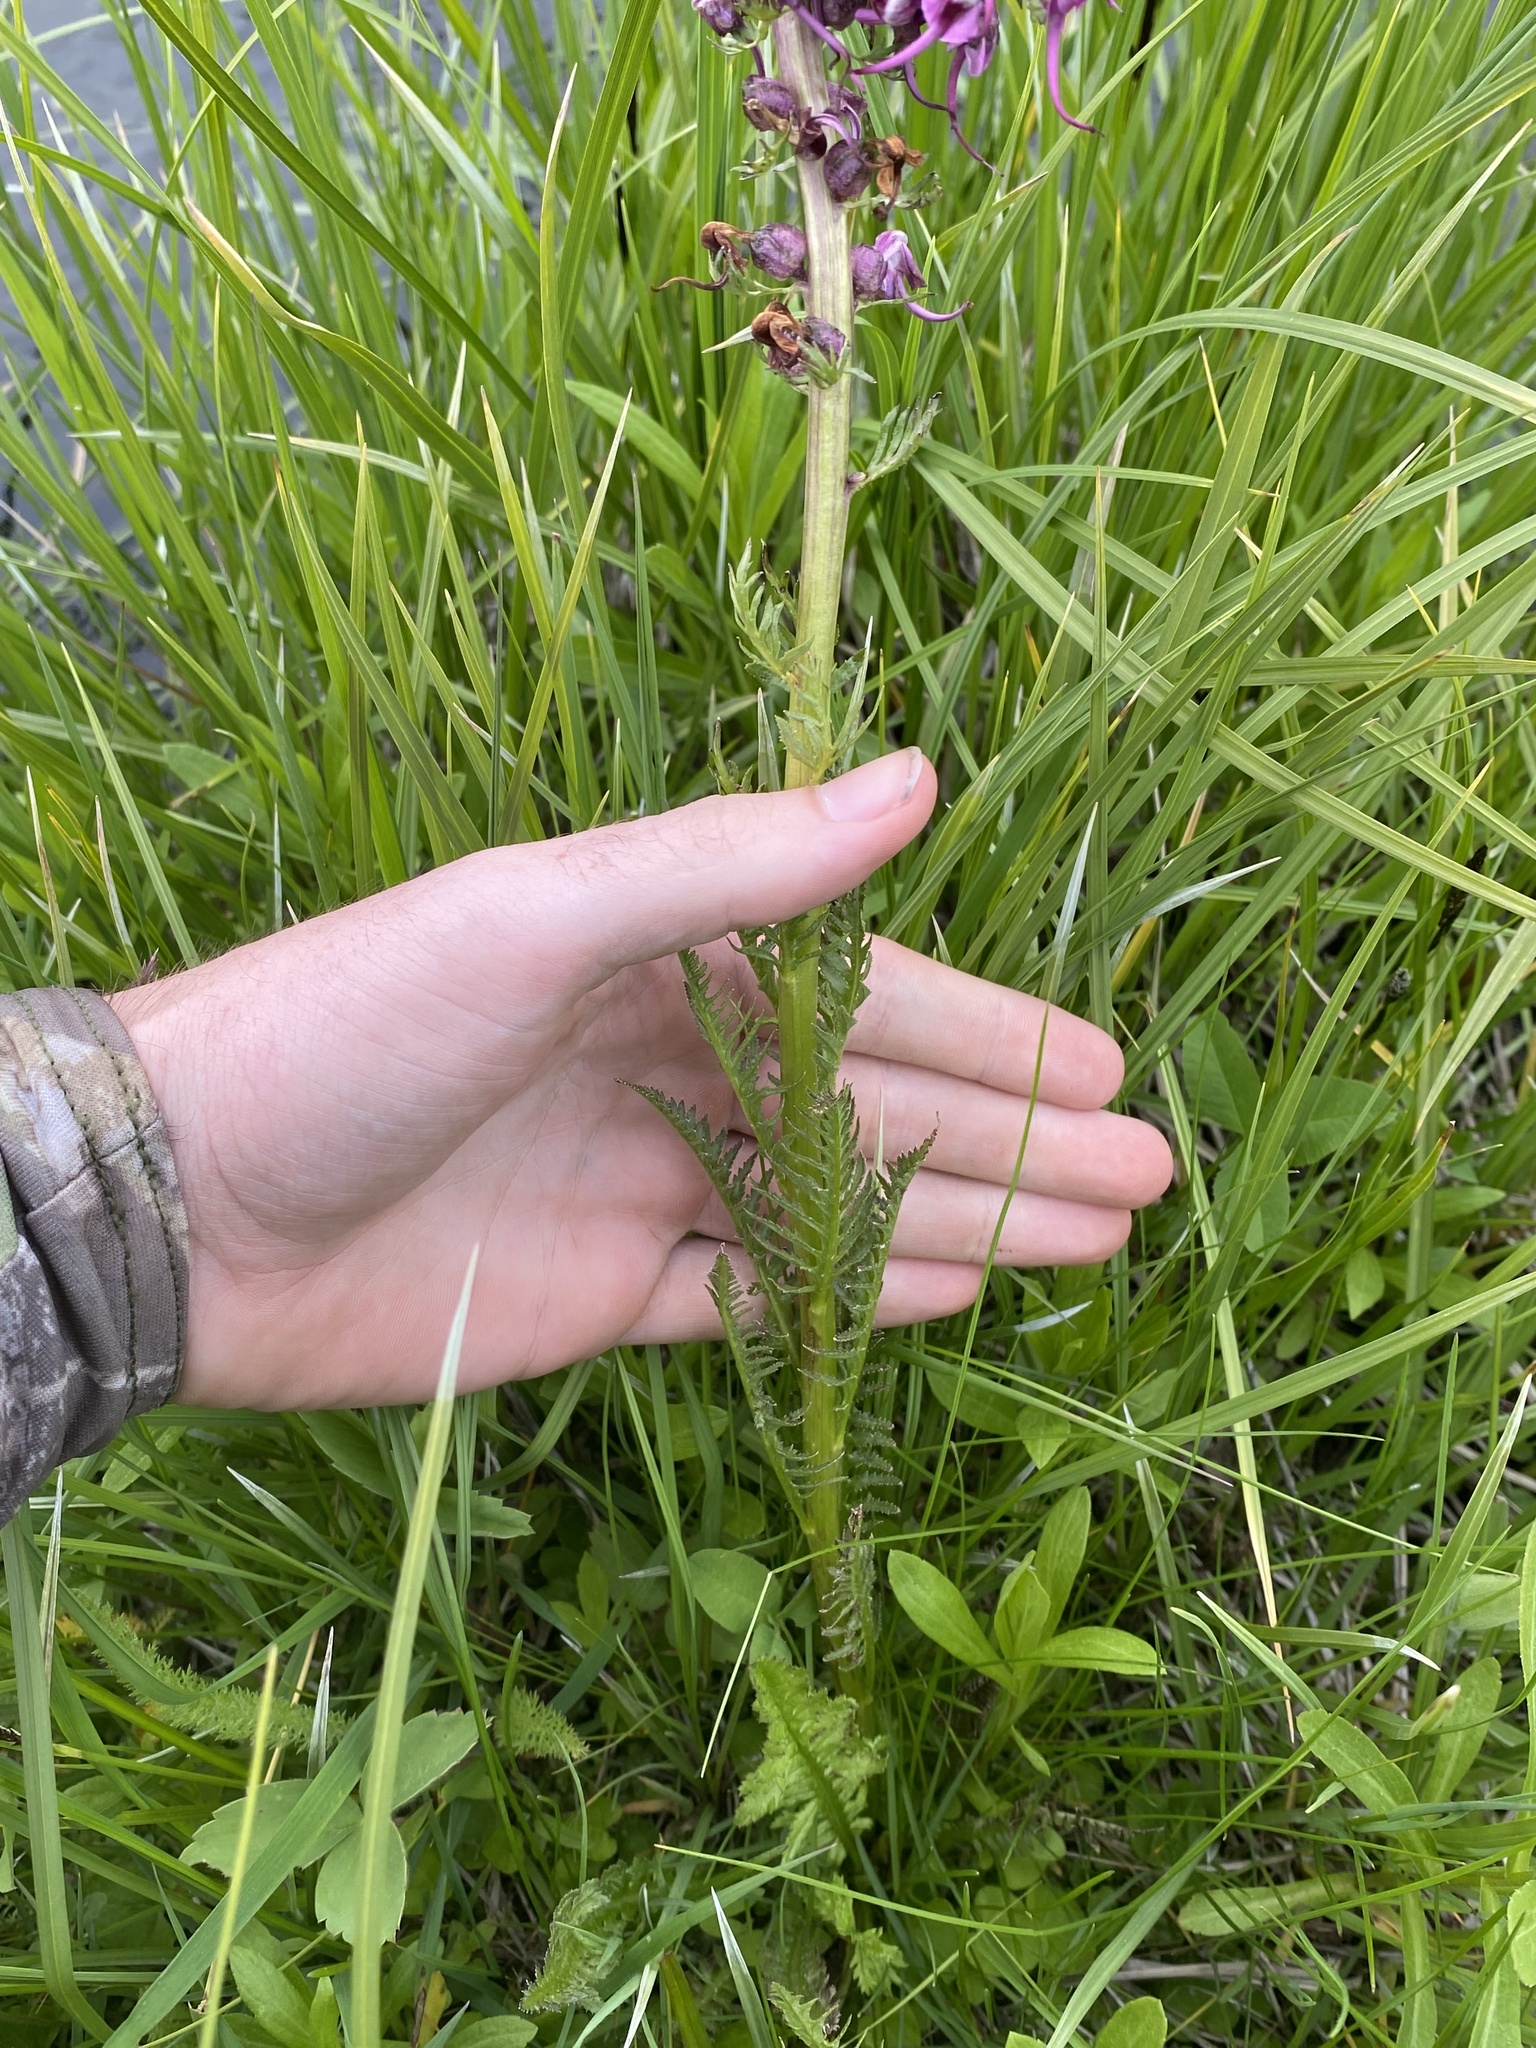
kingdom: Plantae
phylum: Tracheophyta
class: Magnoliopsida
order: Lamiales
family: Orobanchaceae
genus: Pedicularis
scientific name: Pedicularis groenlandica
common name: Elephant's-head
